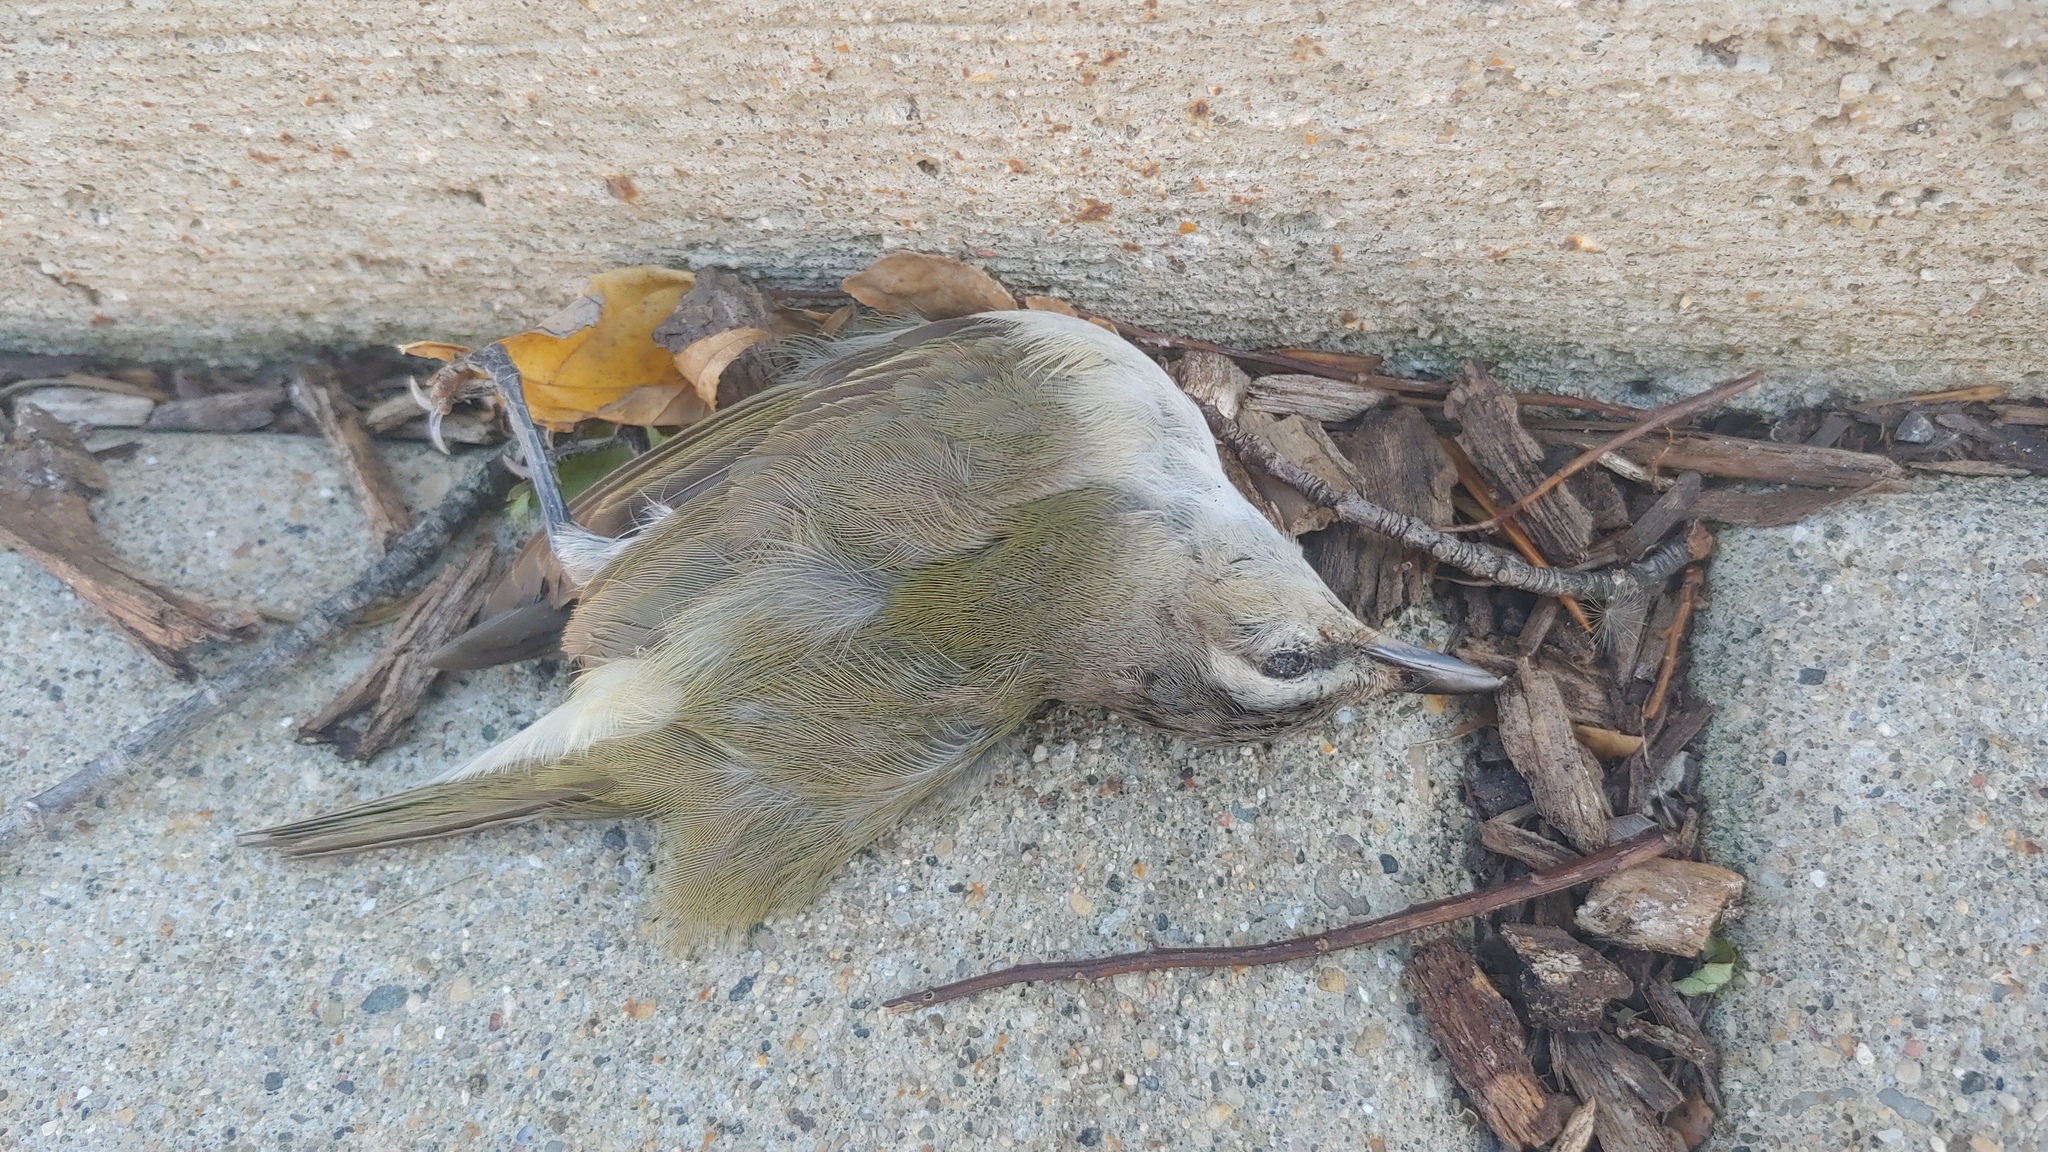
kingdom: Animalia
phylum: Chordata
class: Aves
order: Passeriformes
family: Vireonidae
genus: Vireo
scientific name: Vireo olivaceus
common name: Red-eyed vireo
